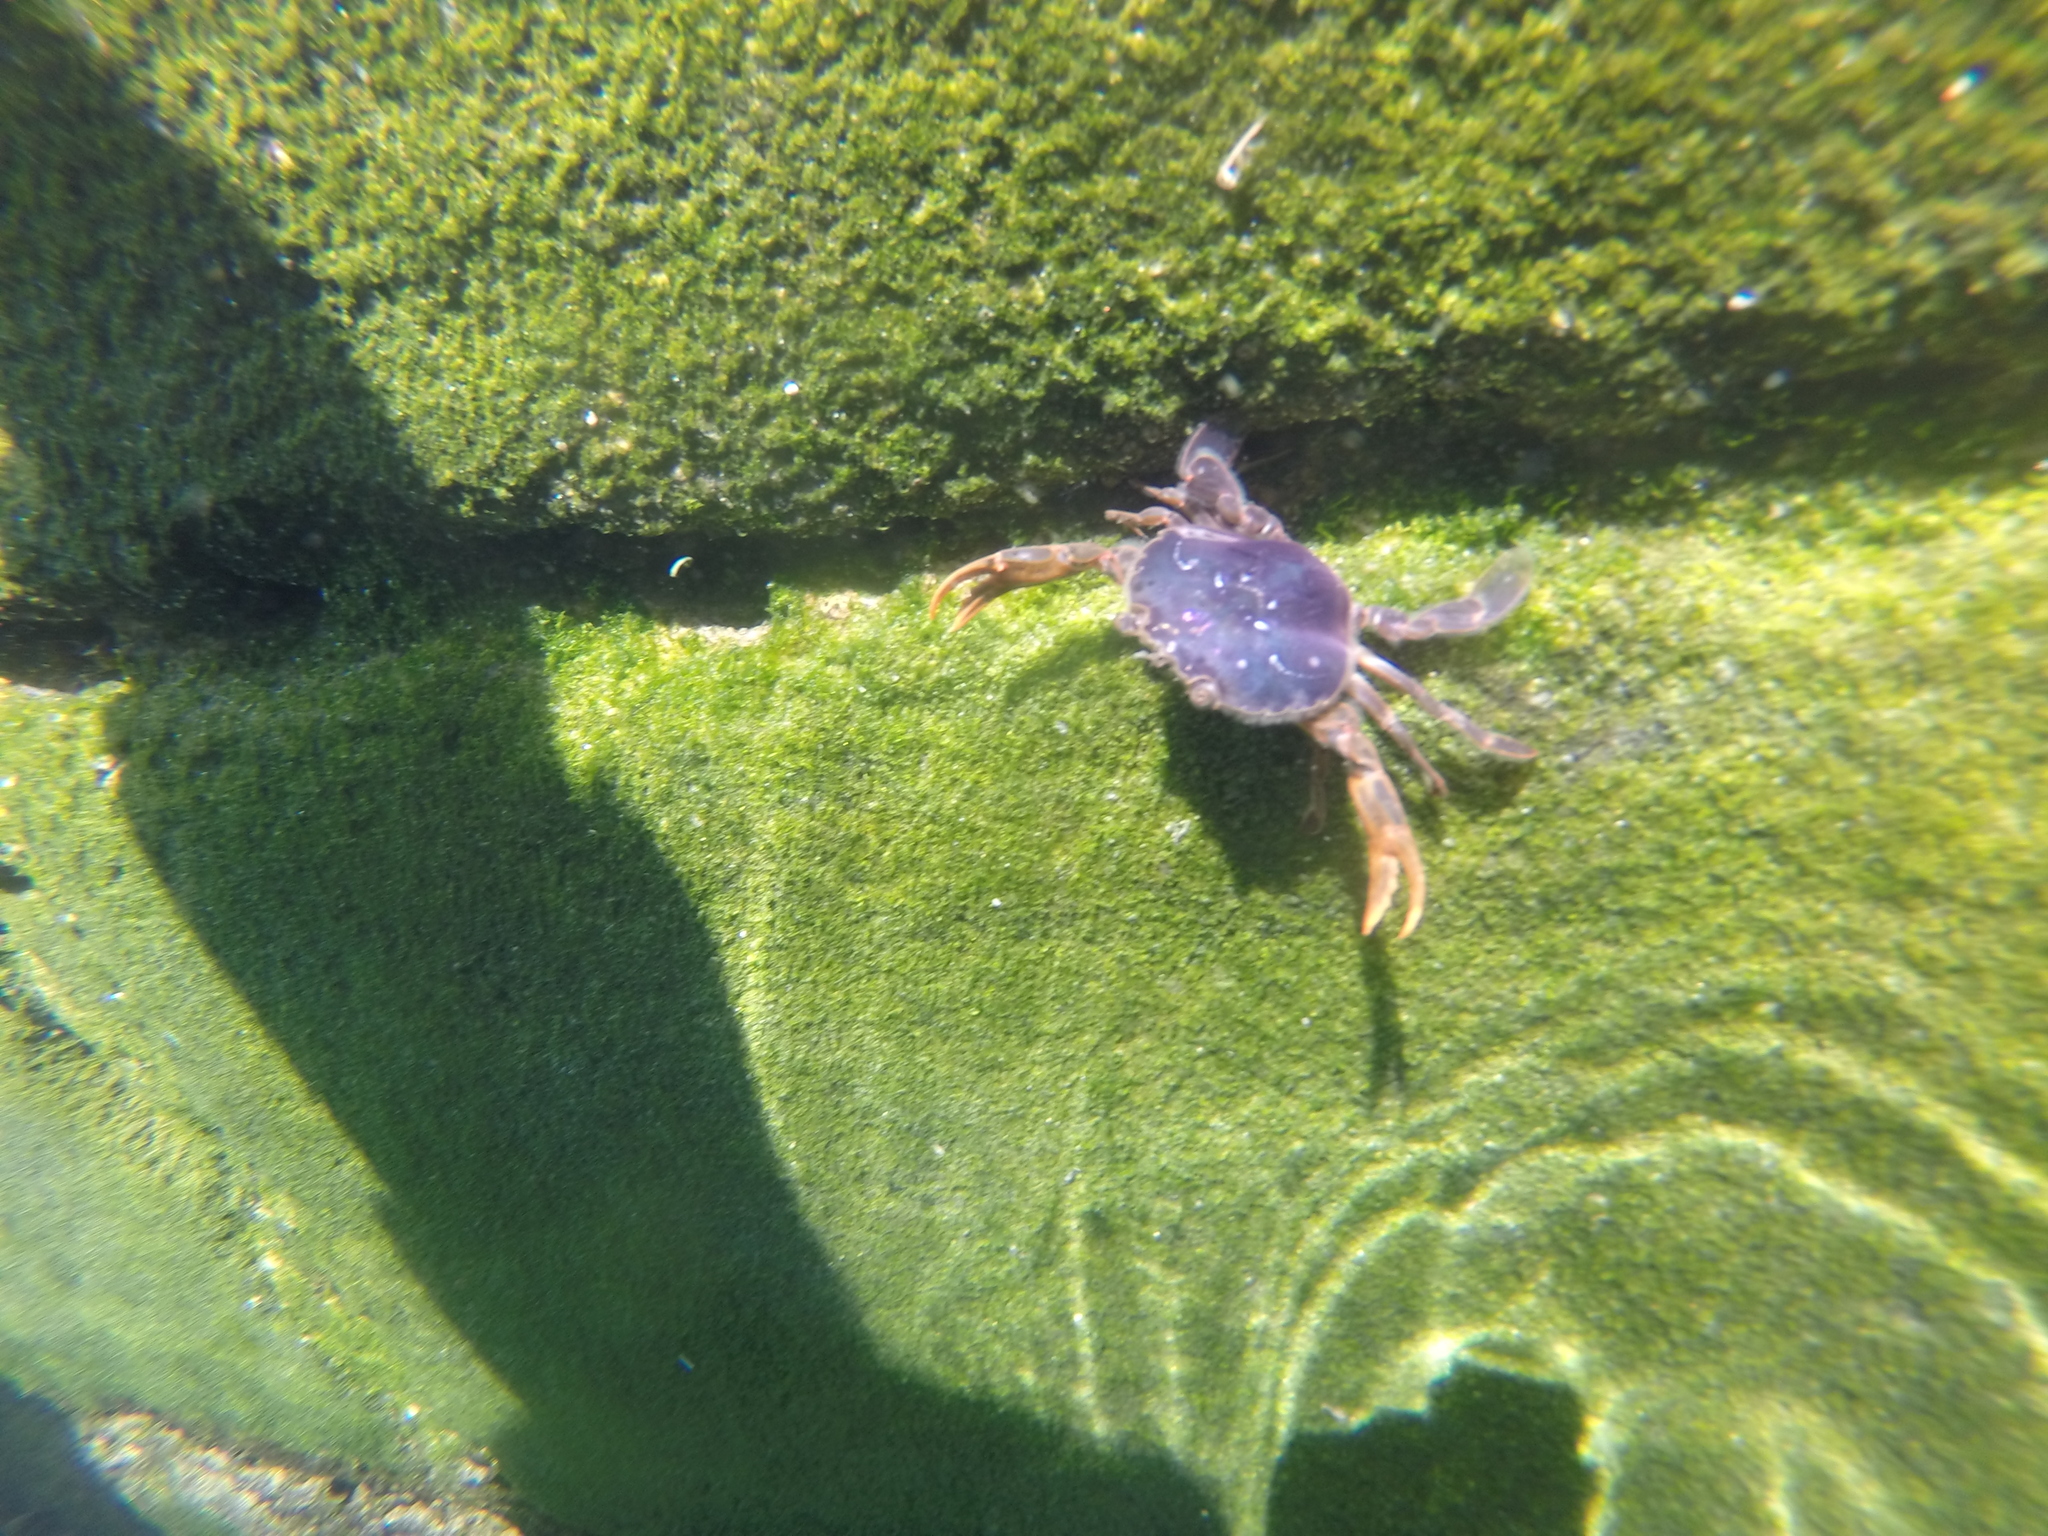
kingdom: Animalia
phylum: Arthropoda
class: Malacostraca
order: Decapoda
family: Polybiidae
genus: Polybius
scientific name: Polybius henslowii
